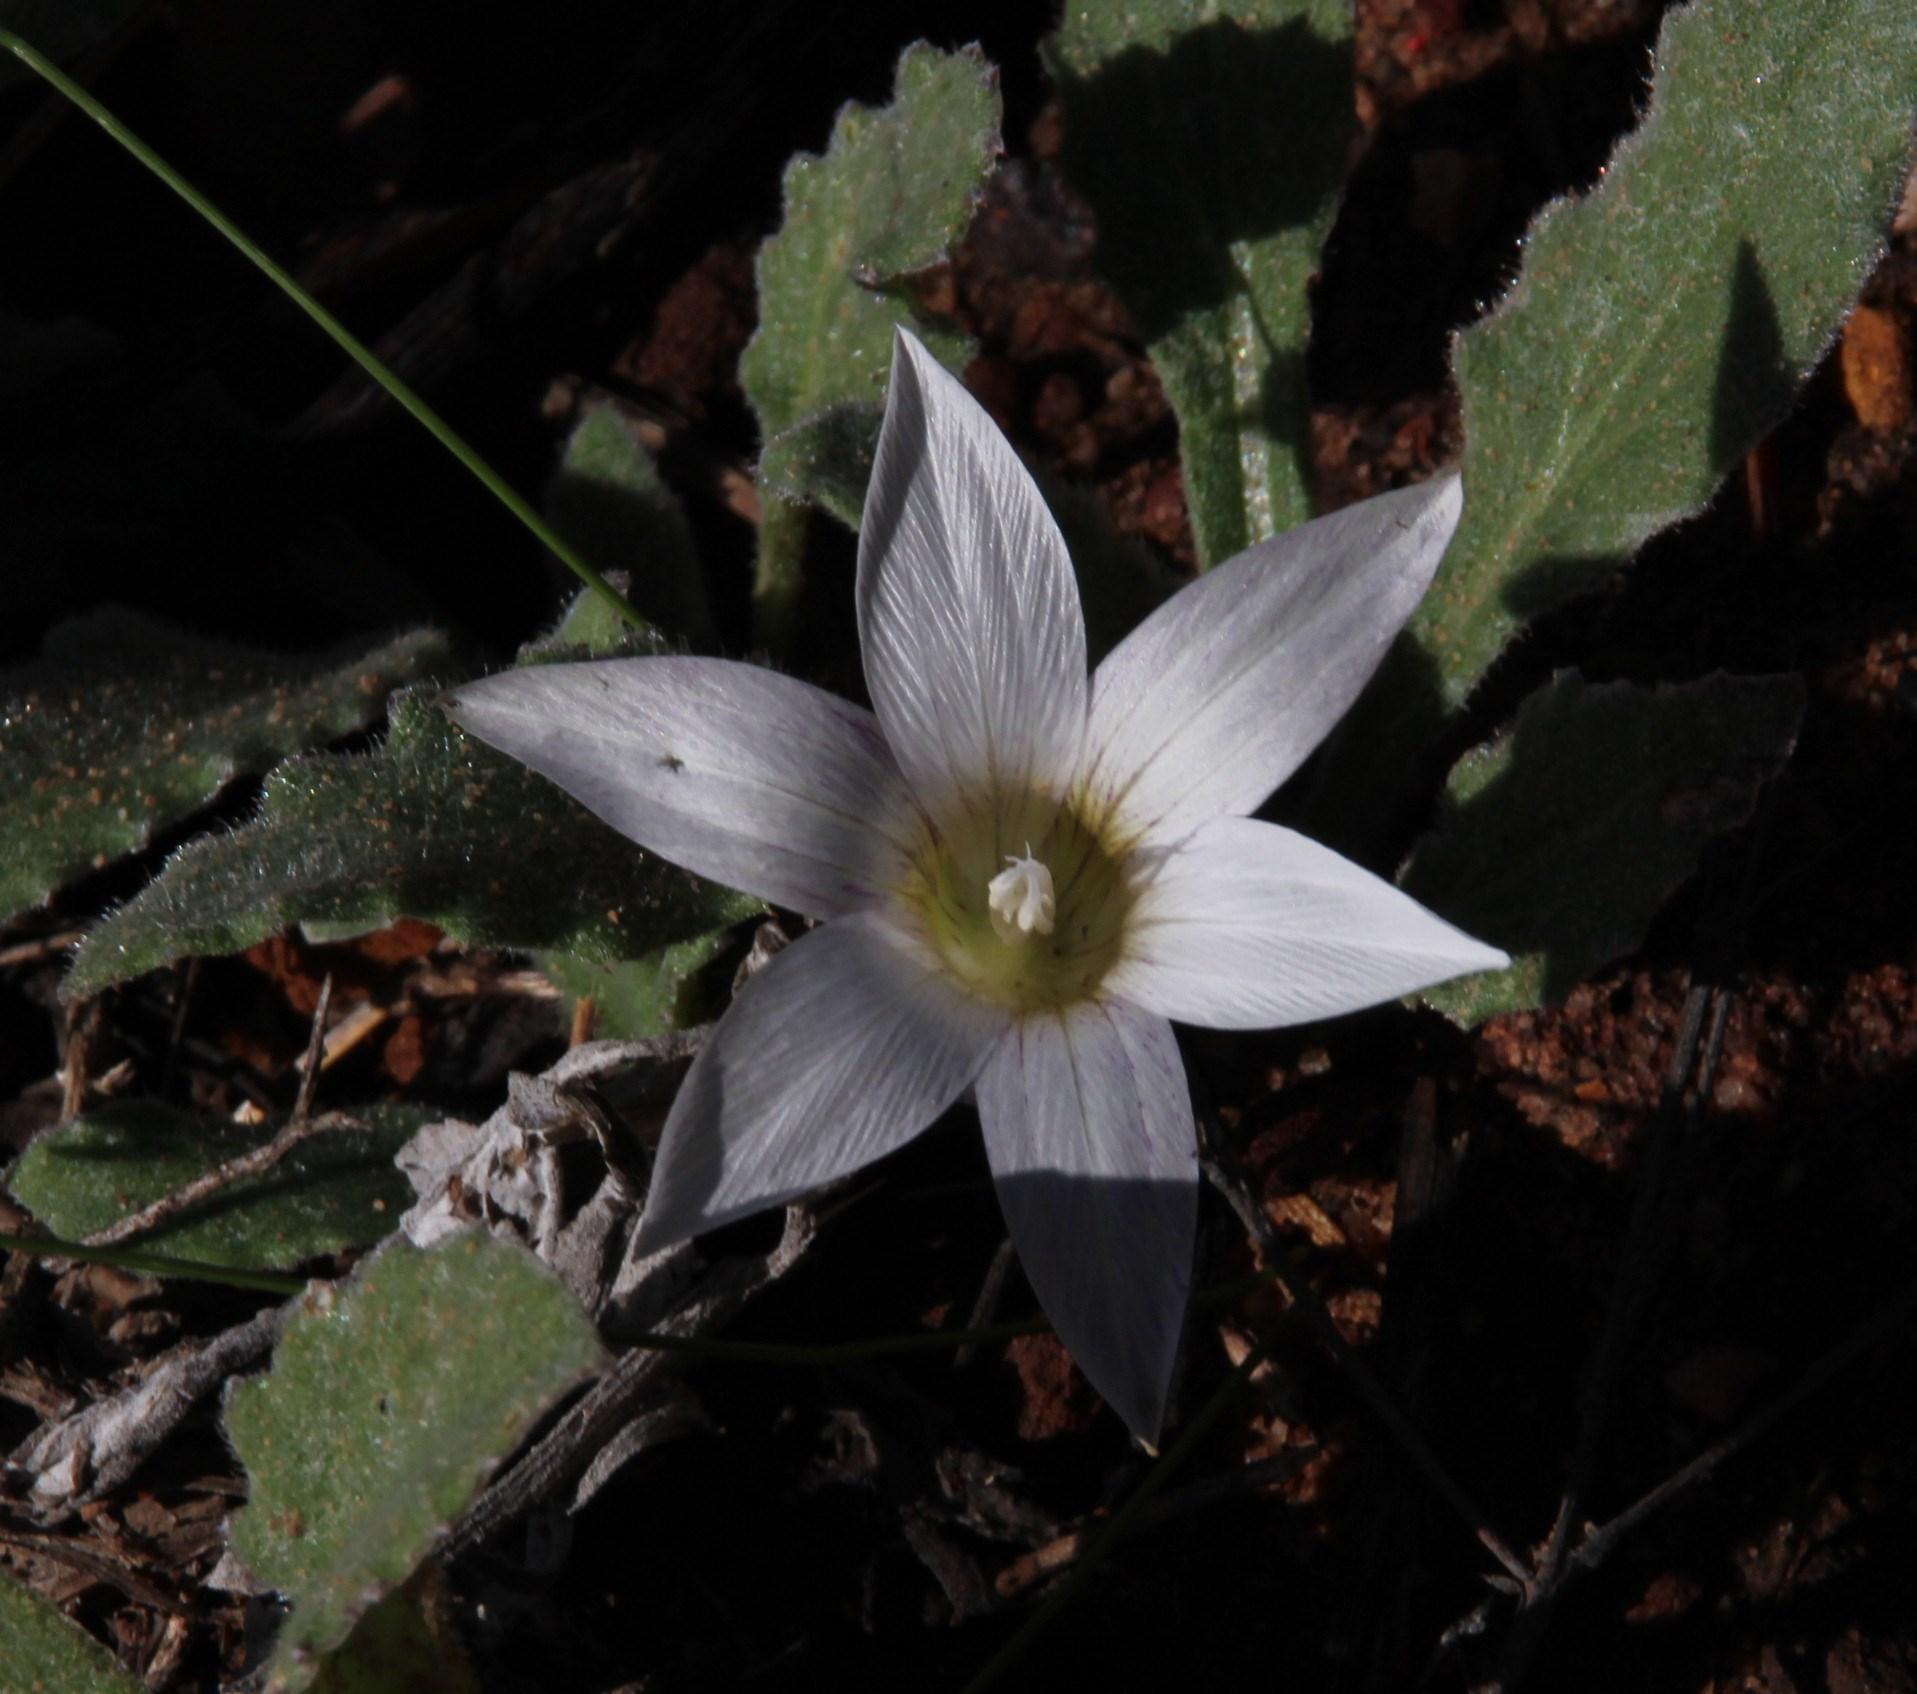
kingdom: Plantae
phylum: Tracheophyta
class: Liliopsida
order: Asparagales
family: Iridaceae
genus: Romulea
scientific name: Romulea flexuosa
